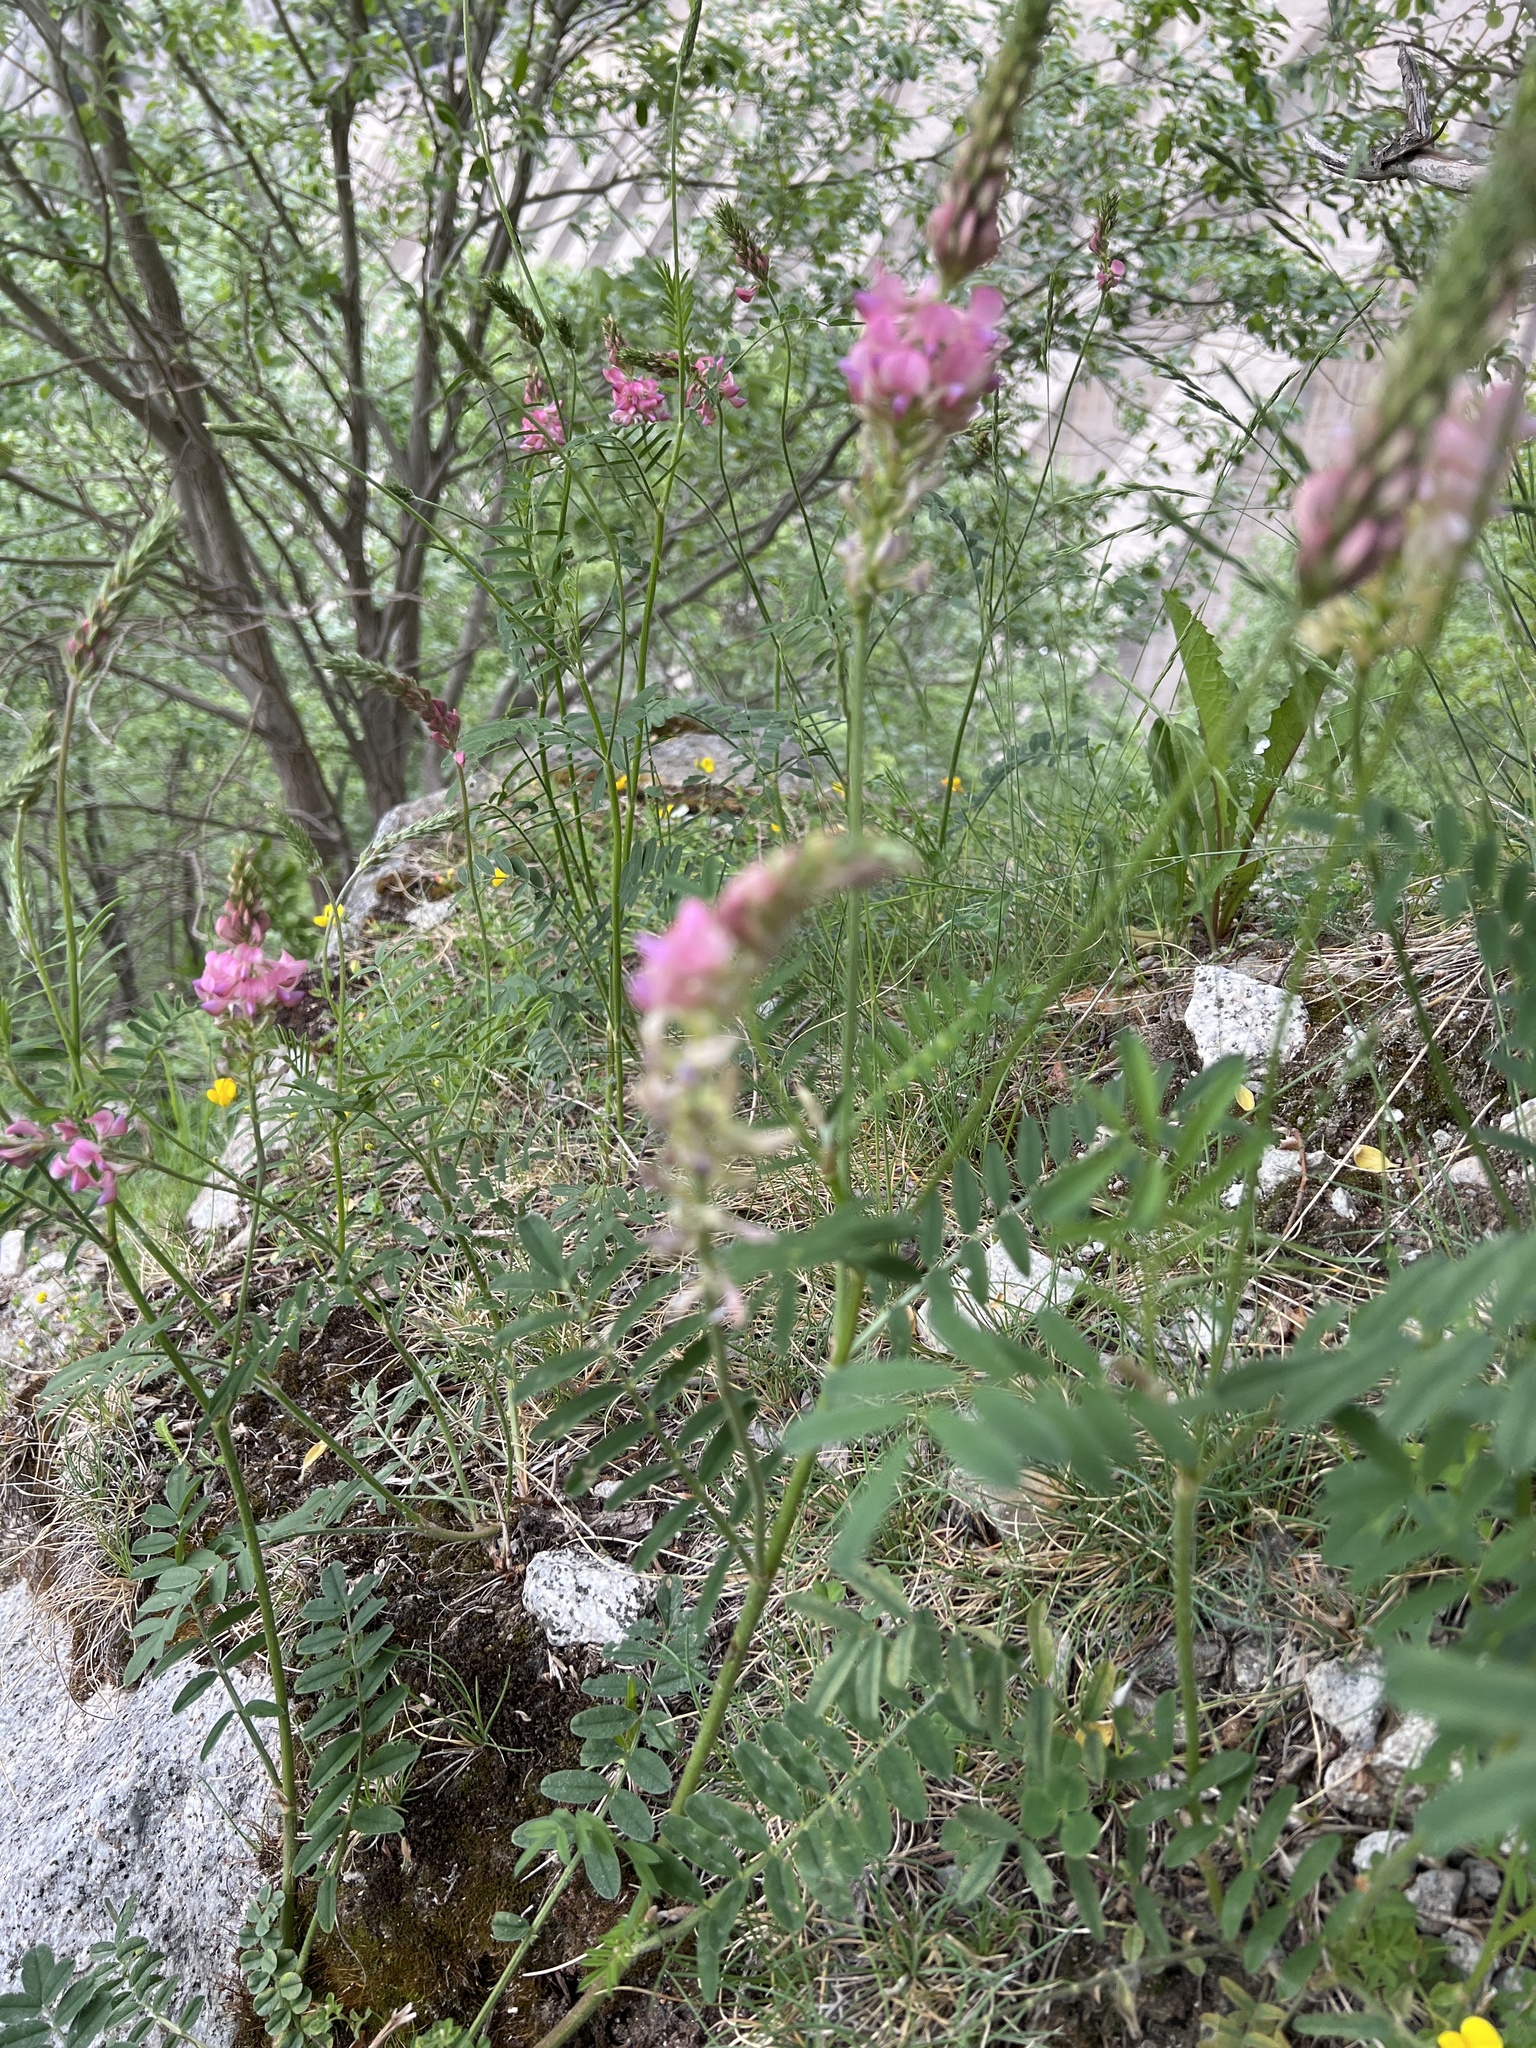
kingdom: Plantae
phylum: Tracheophyta
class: Magnoliopsida
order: Fabales
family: Fabaceae
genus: Onobrychis
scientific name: Onobrychis viciifolia
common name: Sainfoin
